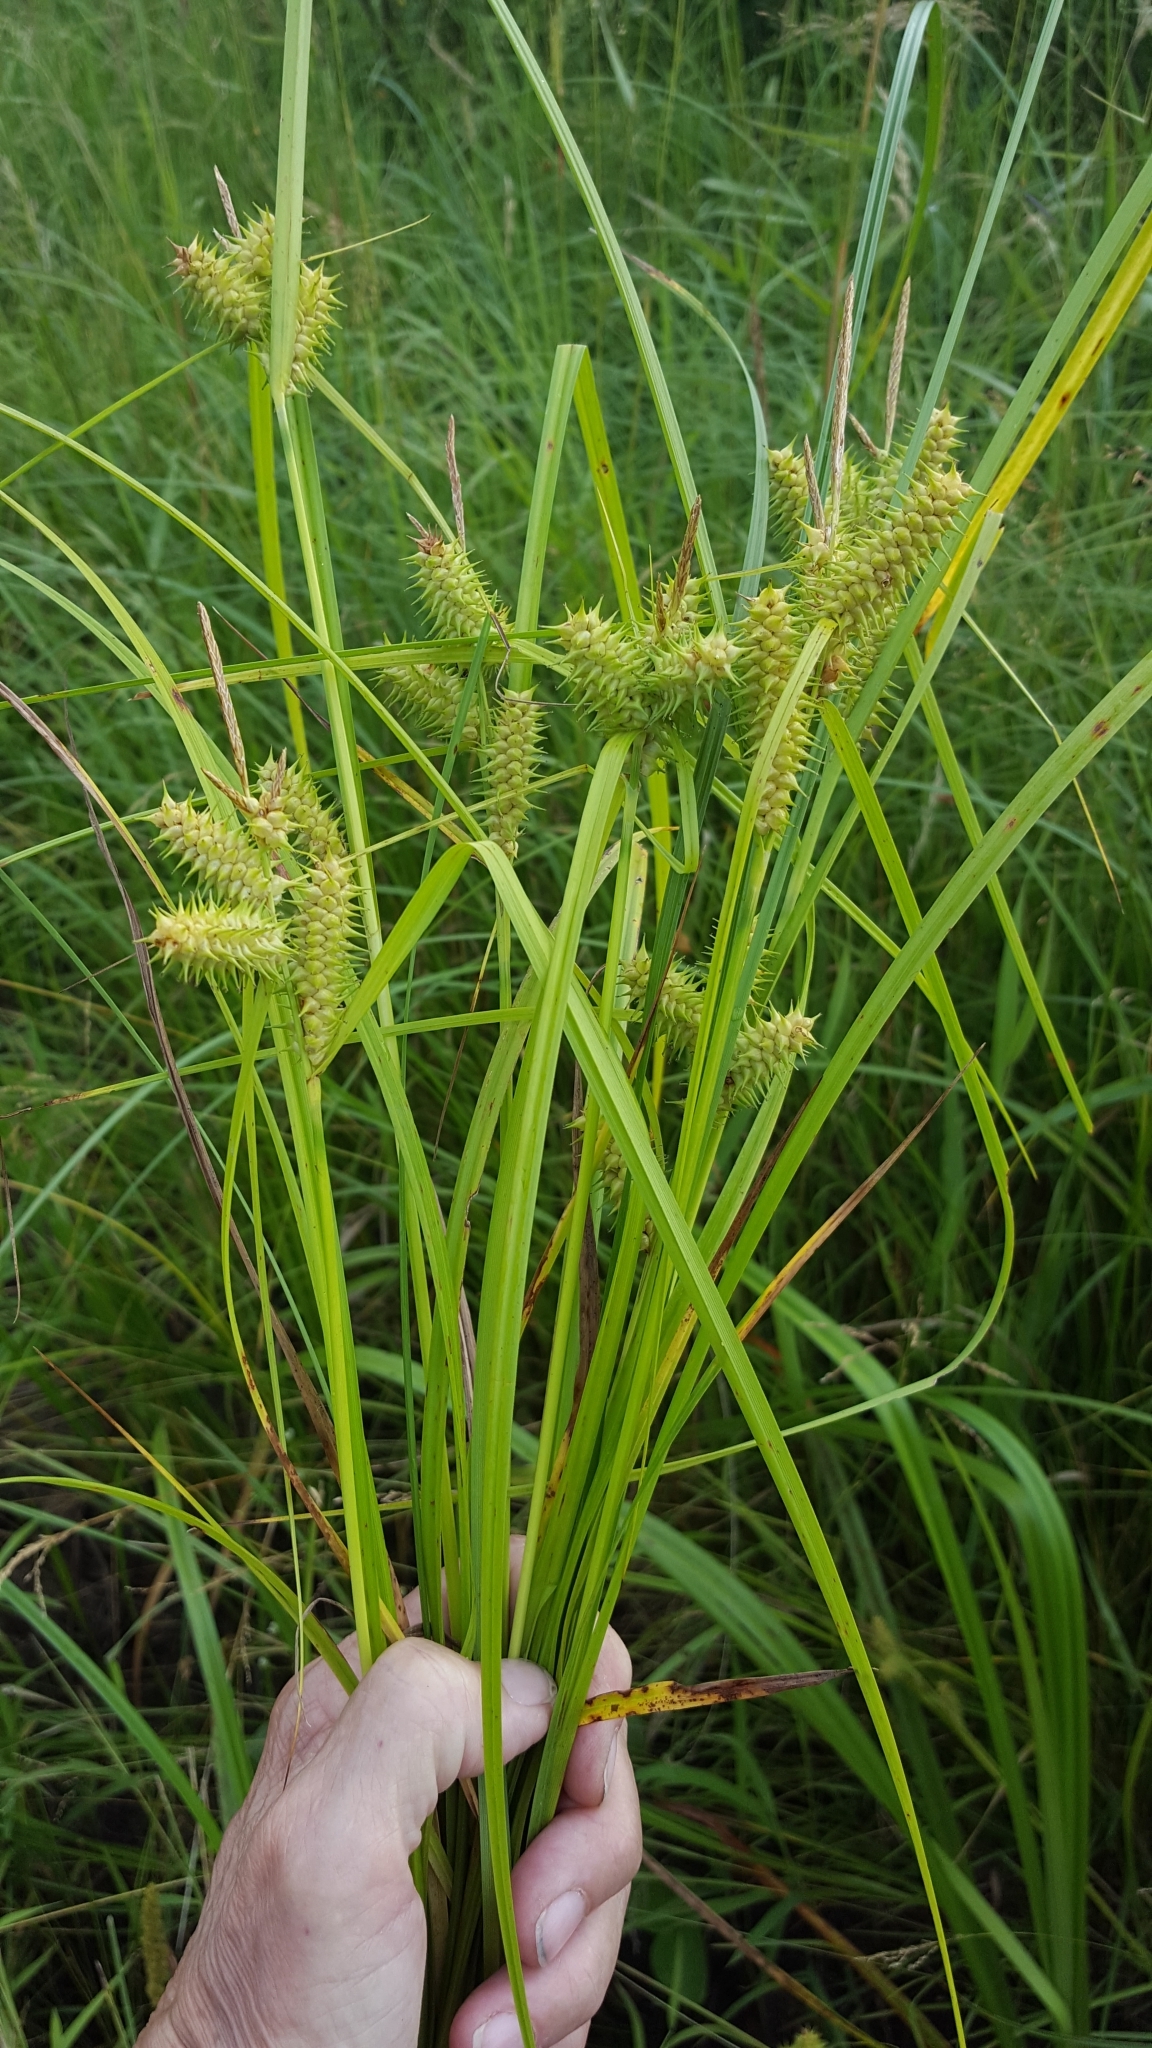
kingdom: Plantae
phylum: Tracheophyta
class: Liliopsida
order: Poales
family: Cyperaceae
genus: Carex
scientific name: Carex retrorsa
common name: Knot-sheath sedge
